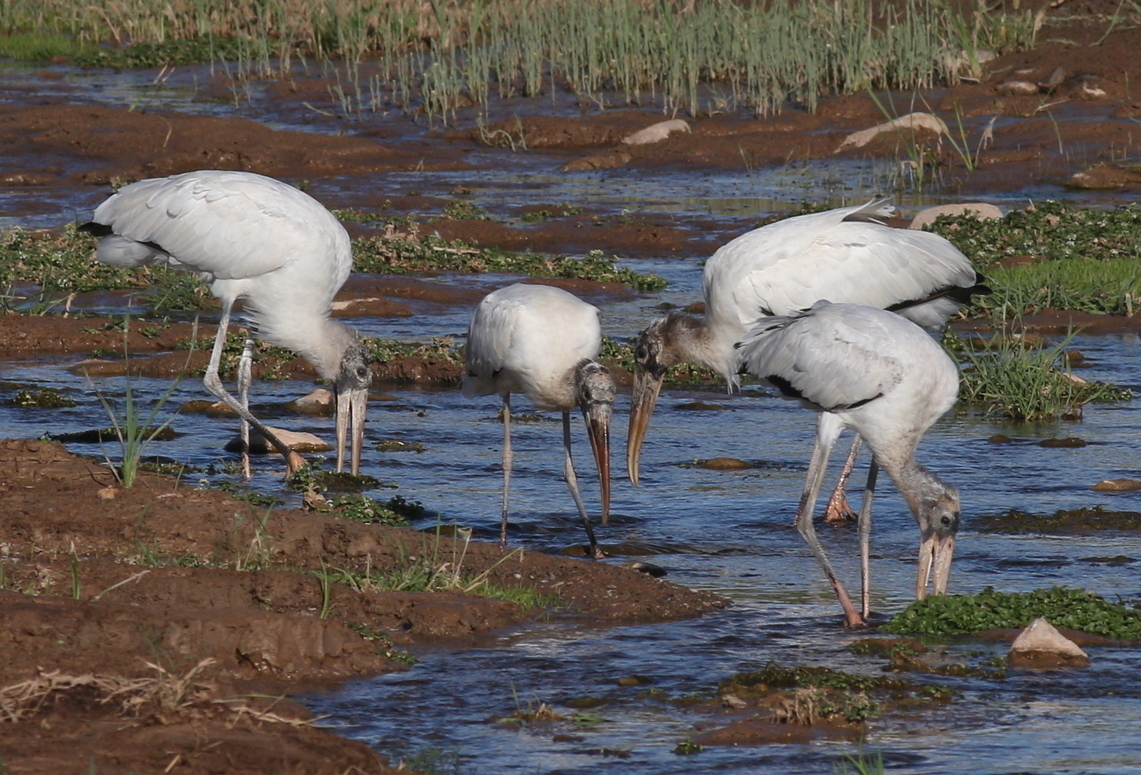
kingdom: Animalia
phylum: Chordata
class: Aves
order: Ciconiiformes
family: Ciconiidae
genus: Mycteria
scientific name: Mycteria americana
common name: Wood stork
